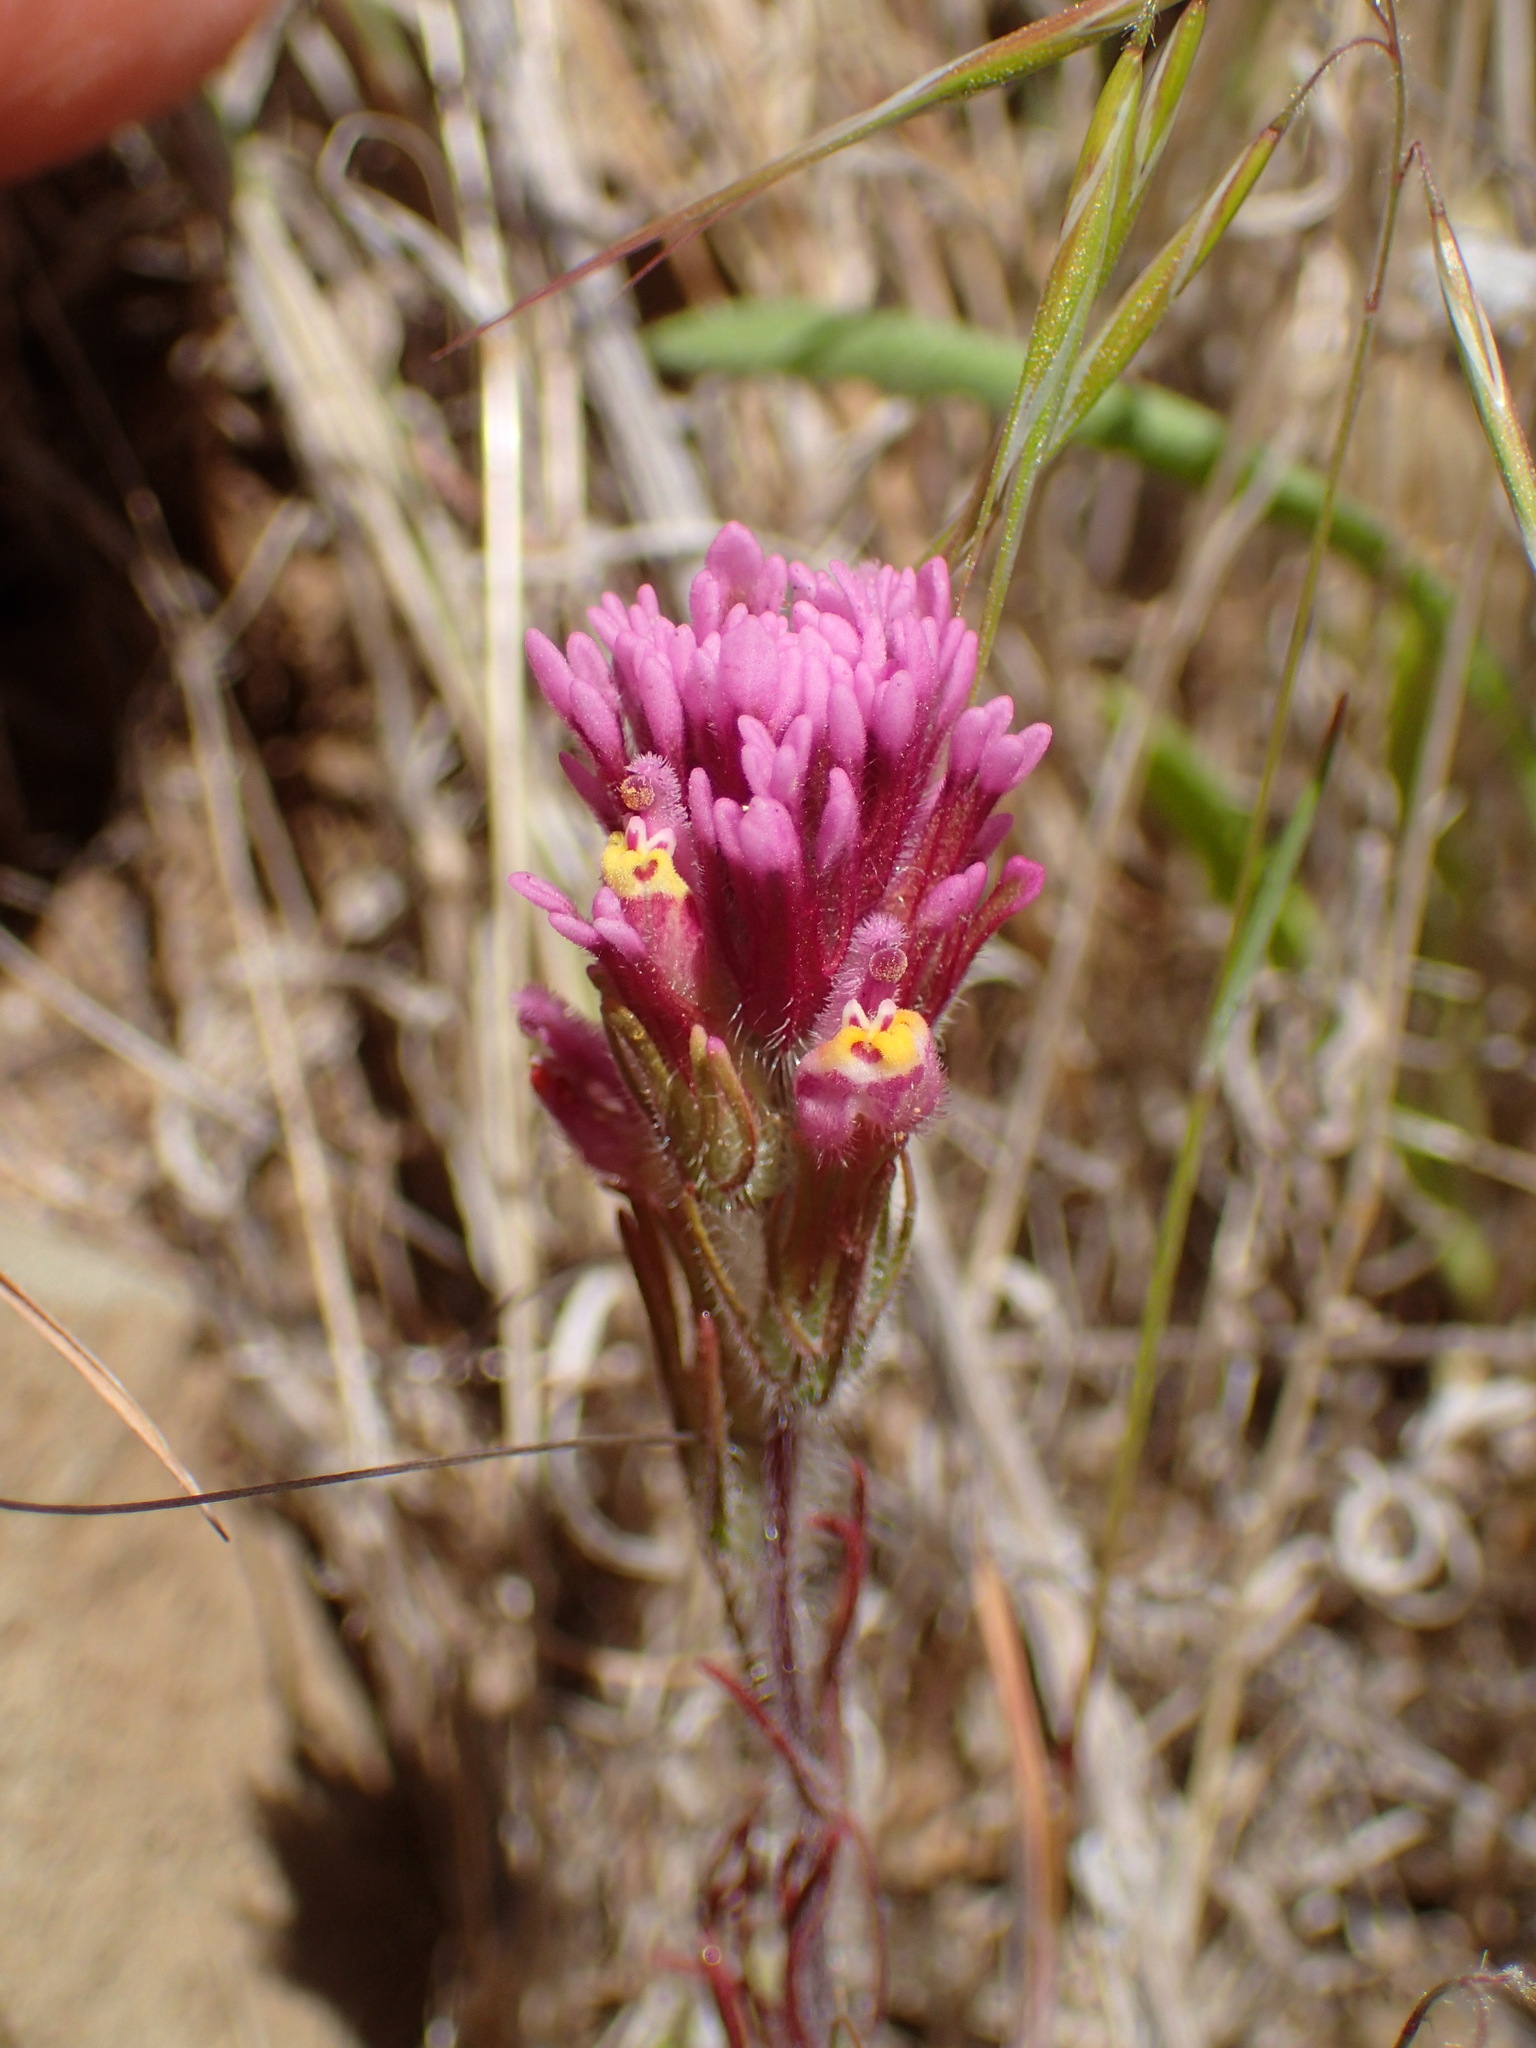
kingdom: Plantae
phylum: Tracheophyta
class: Magnoliopsida
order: Lamiales
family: Orobanchaceae
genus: Castilleja
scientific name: Castilleja exserta
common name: Purple owl-clover
